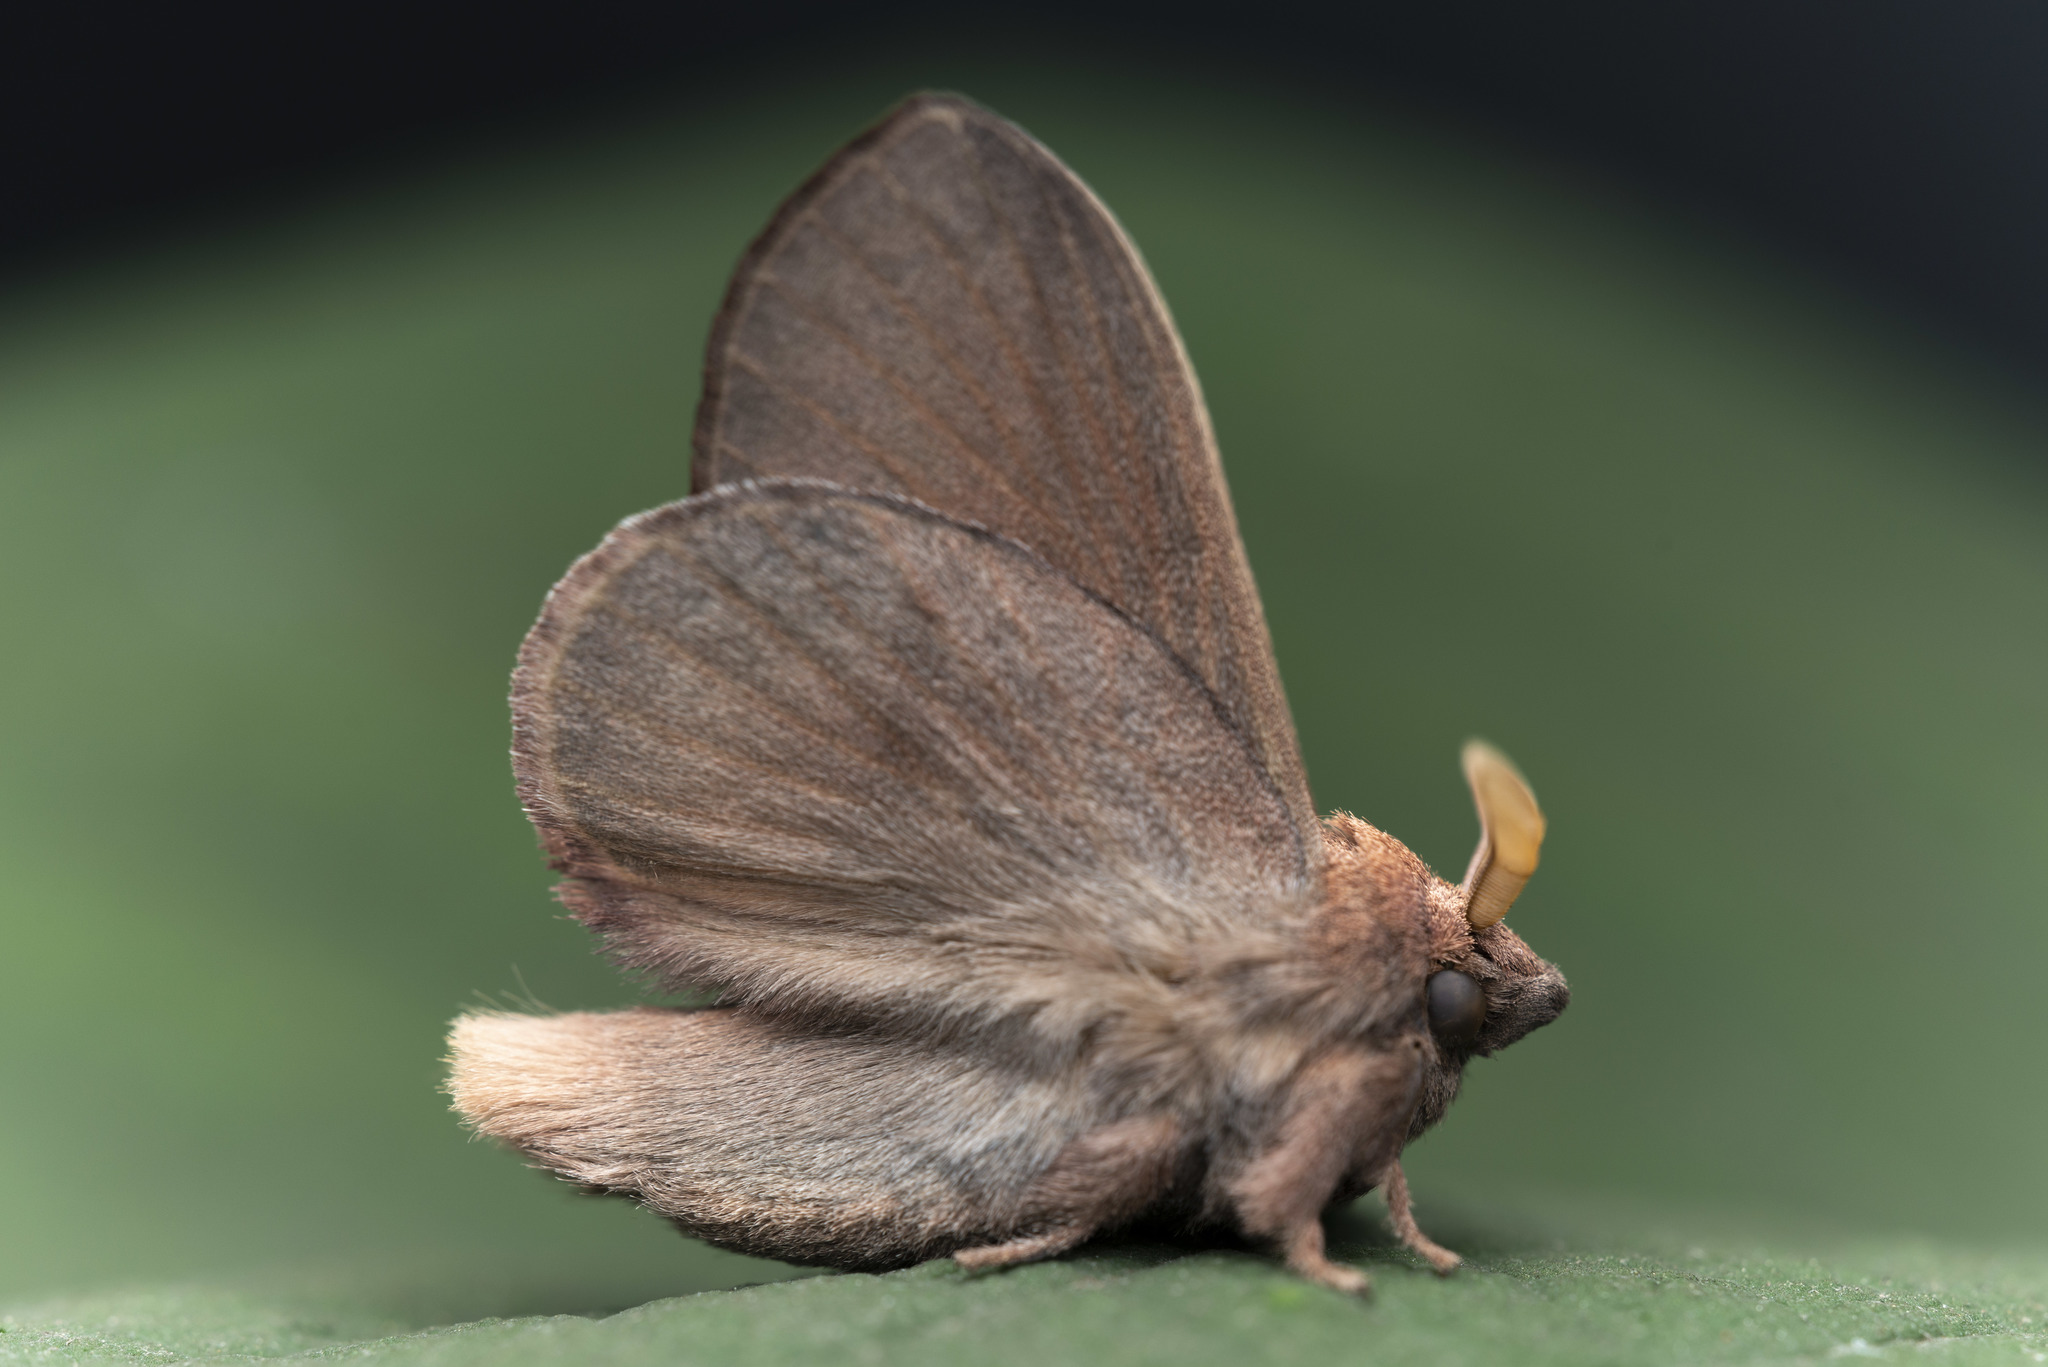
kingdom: Animalia
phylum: Arthropoda
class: Insecta
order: Lepidoptera
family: Lasiocampidae
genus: Euthrix
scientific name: Euthrix isocyma
